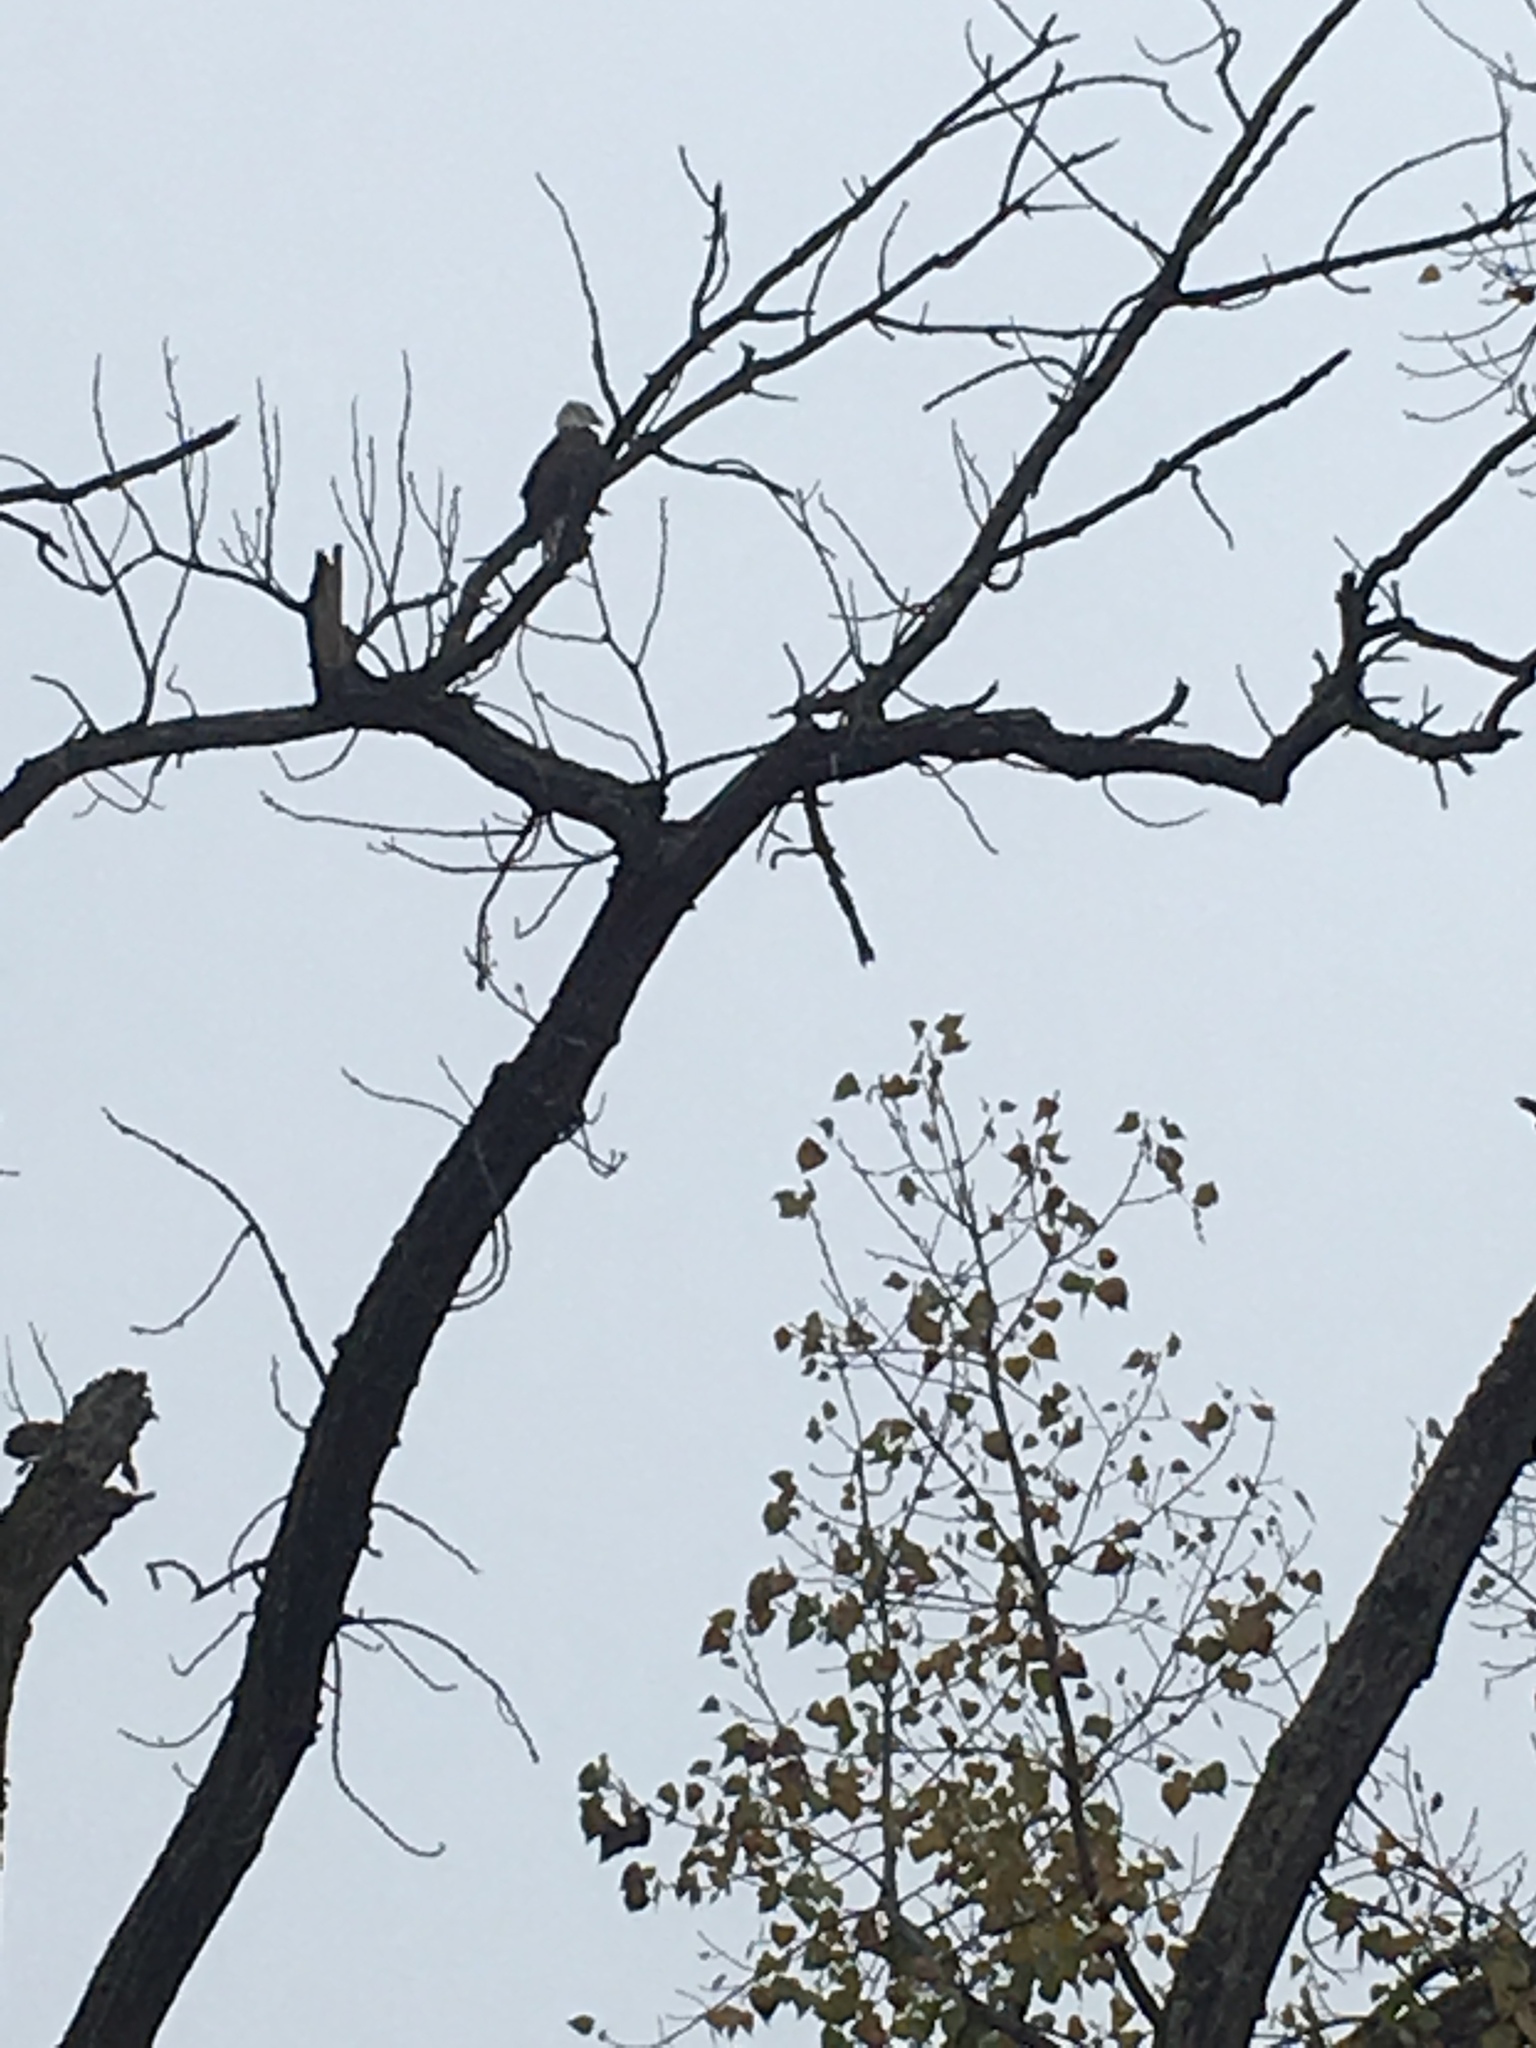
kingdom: Animalia
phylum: Chordata
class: Aves
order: Accipitriformes
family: Accipitridae
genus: Haliaeetus
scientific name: Haliaeetus leucocephalus
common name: Bald eagle
